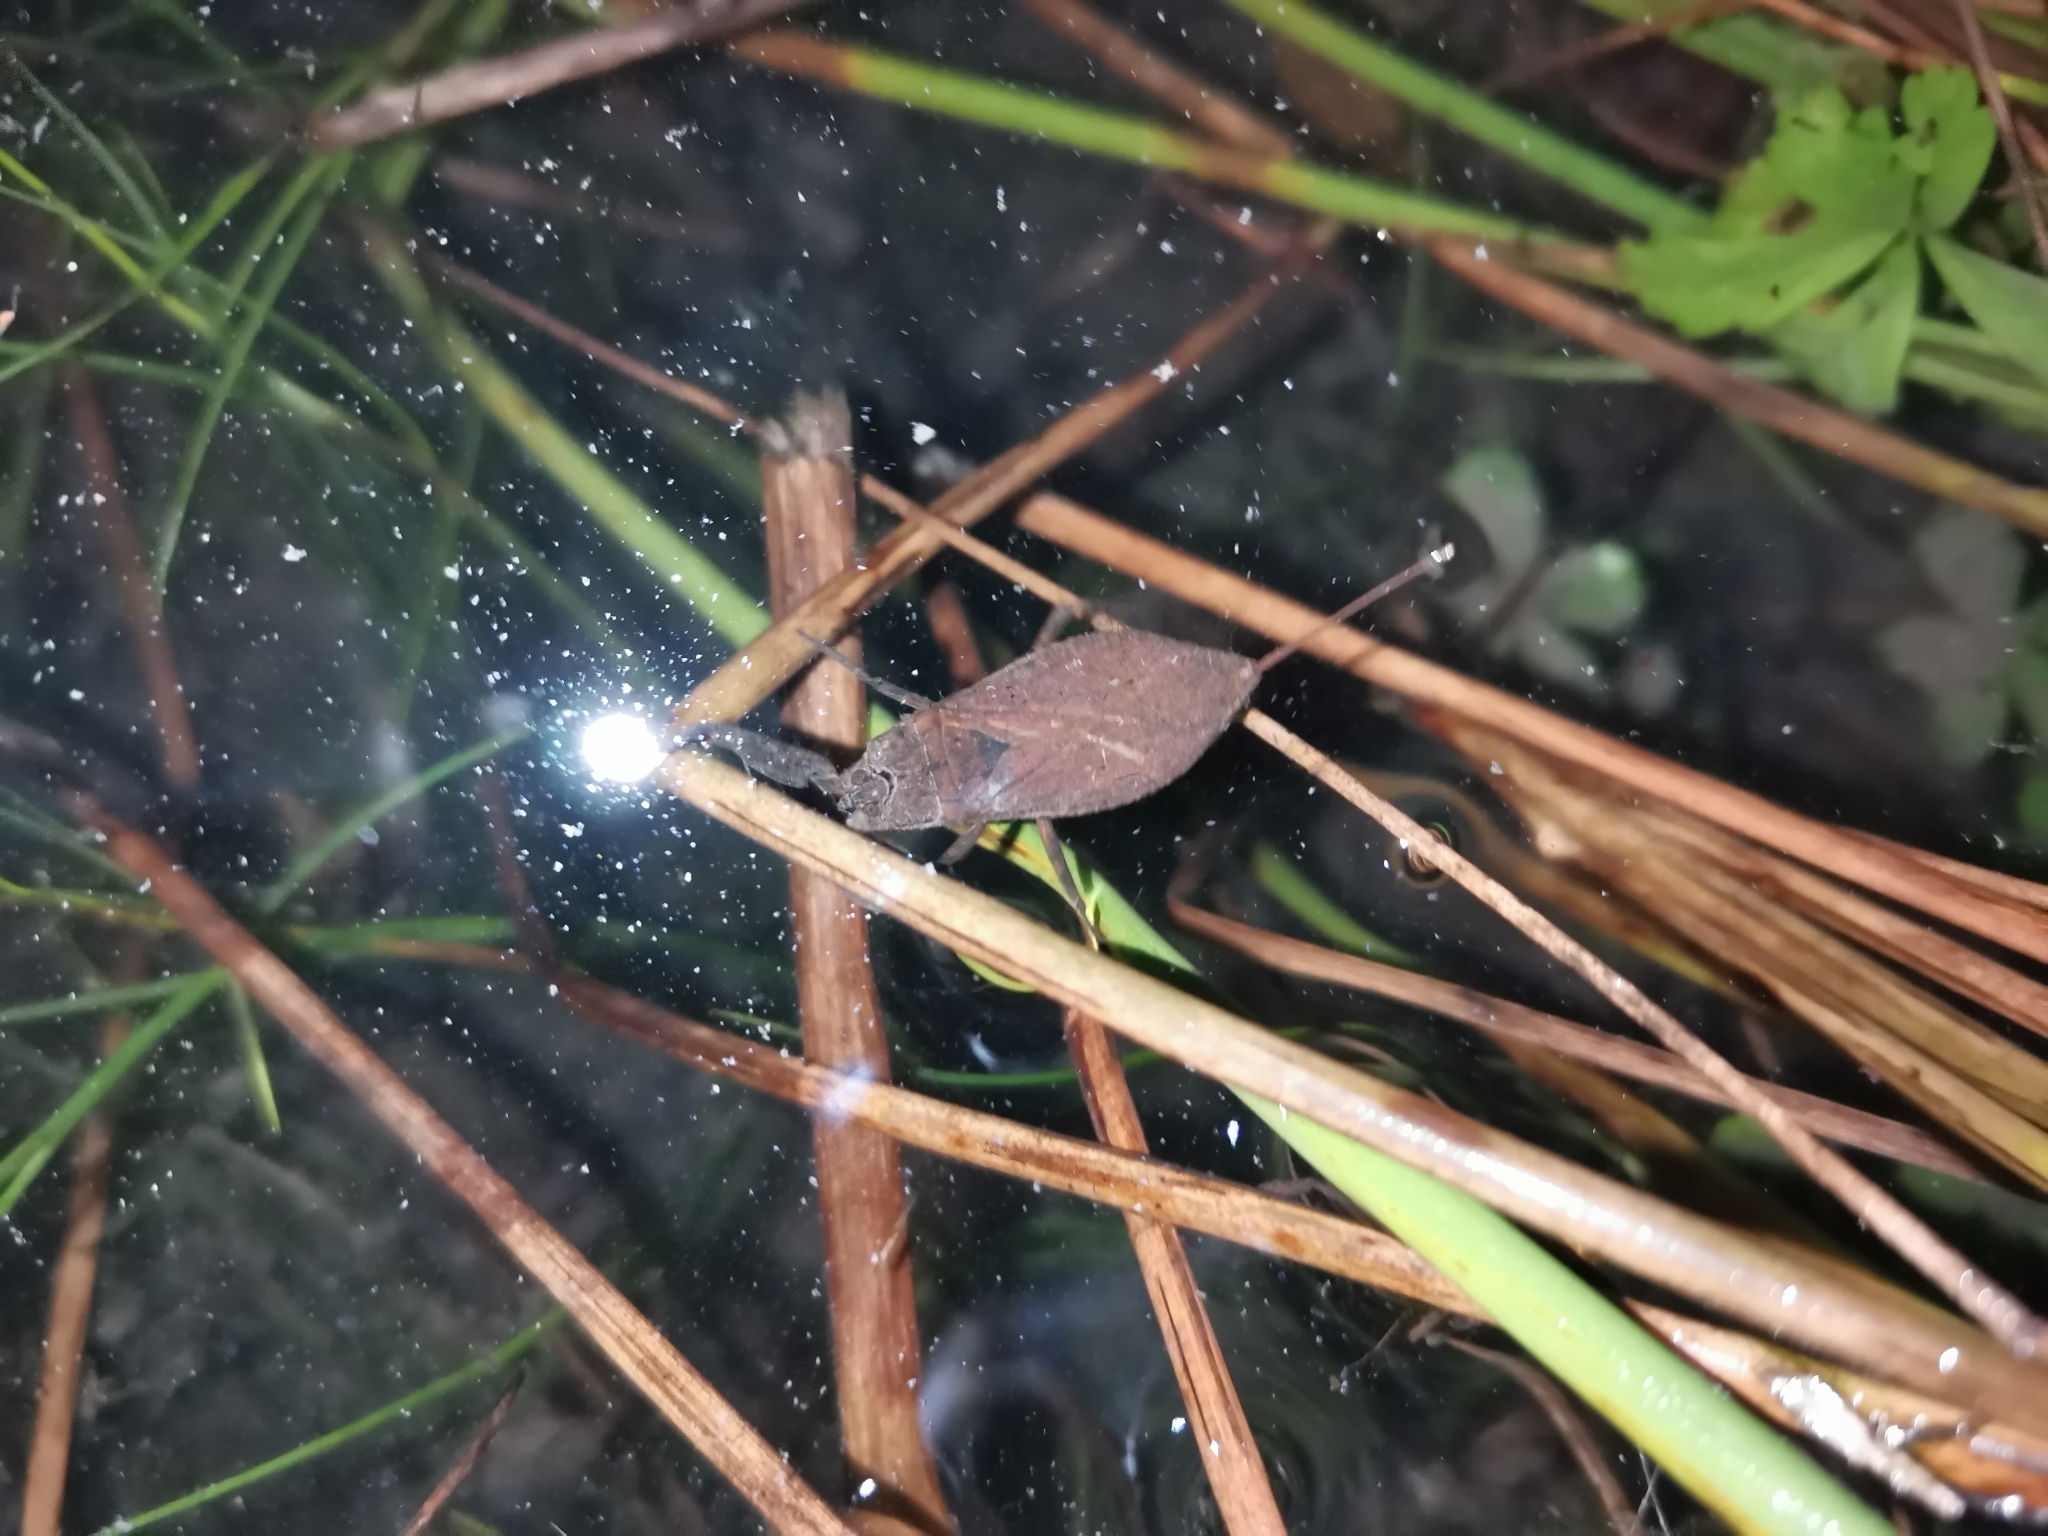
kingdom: Animalia
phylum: Arthropoda
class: Insecta
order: Hemiptera
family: Nepidae
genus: Nepa
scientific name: Nepa cinerea
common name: Water scorpion
